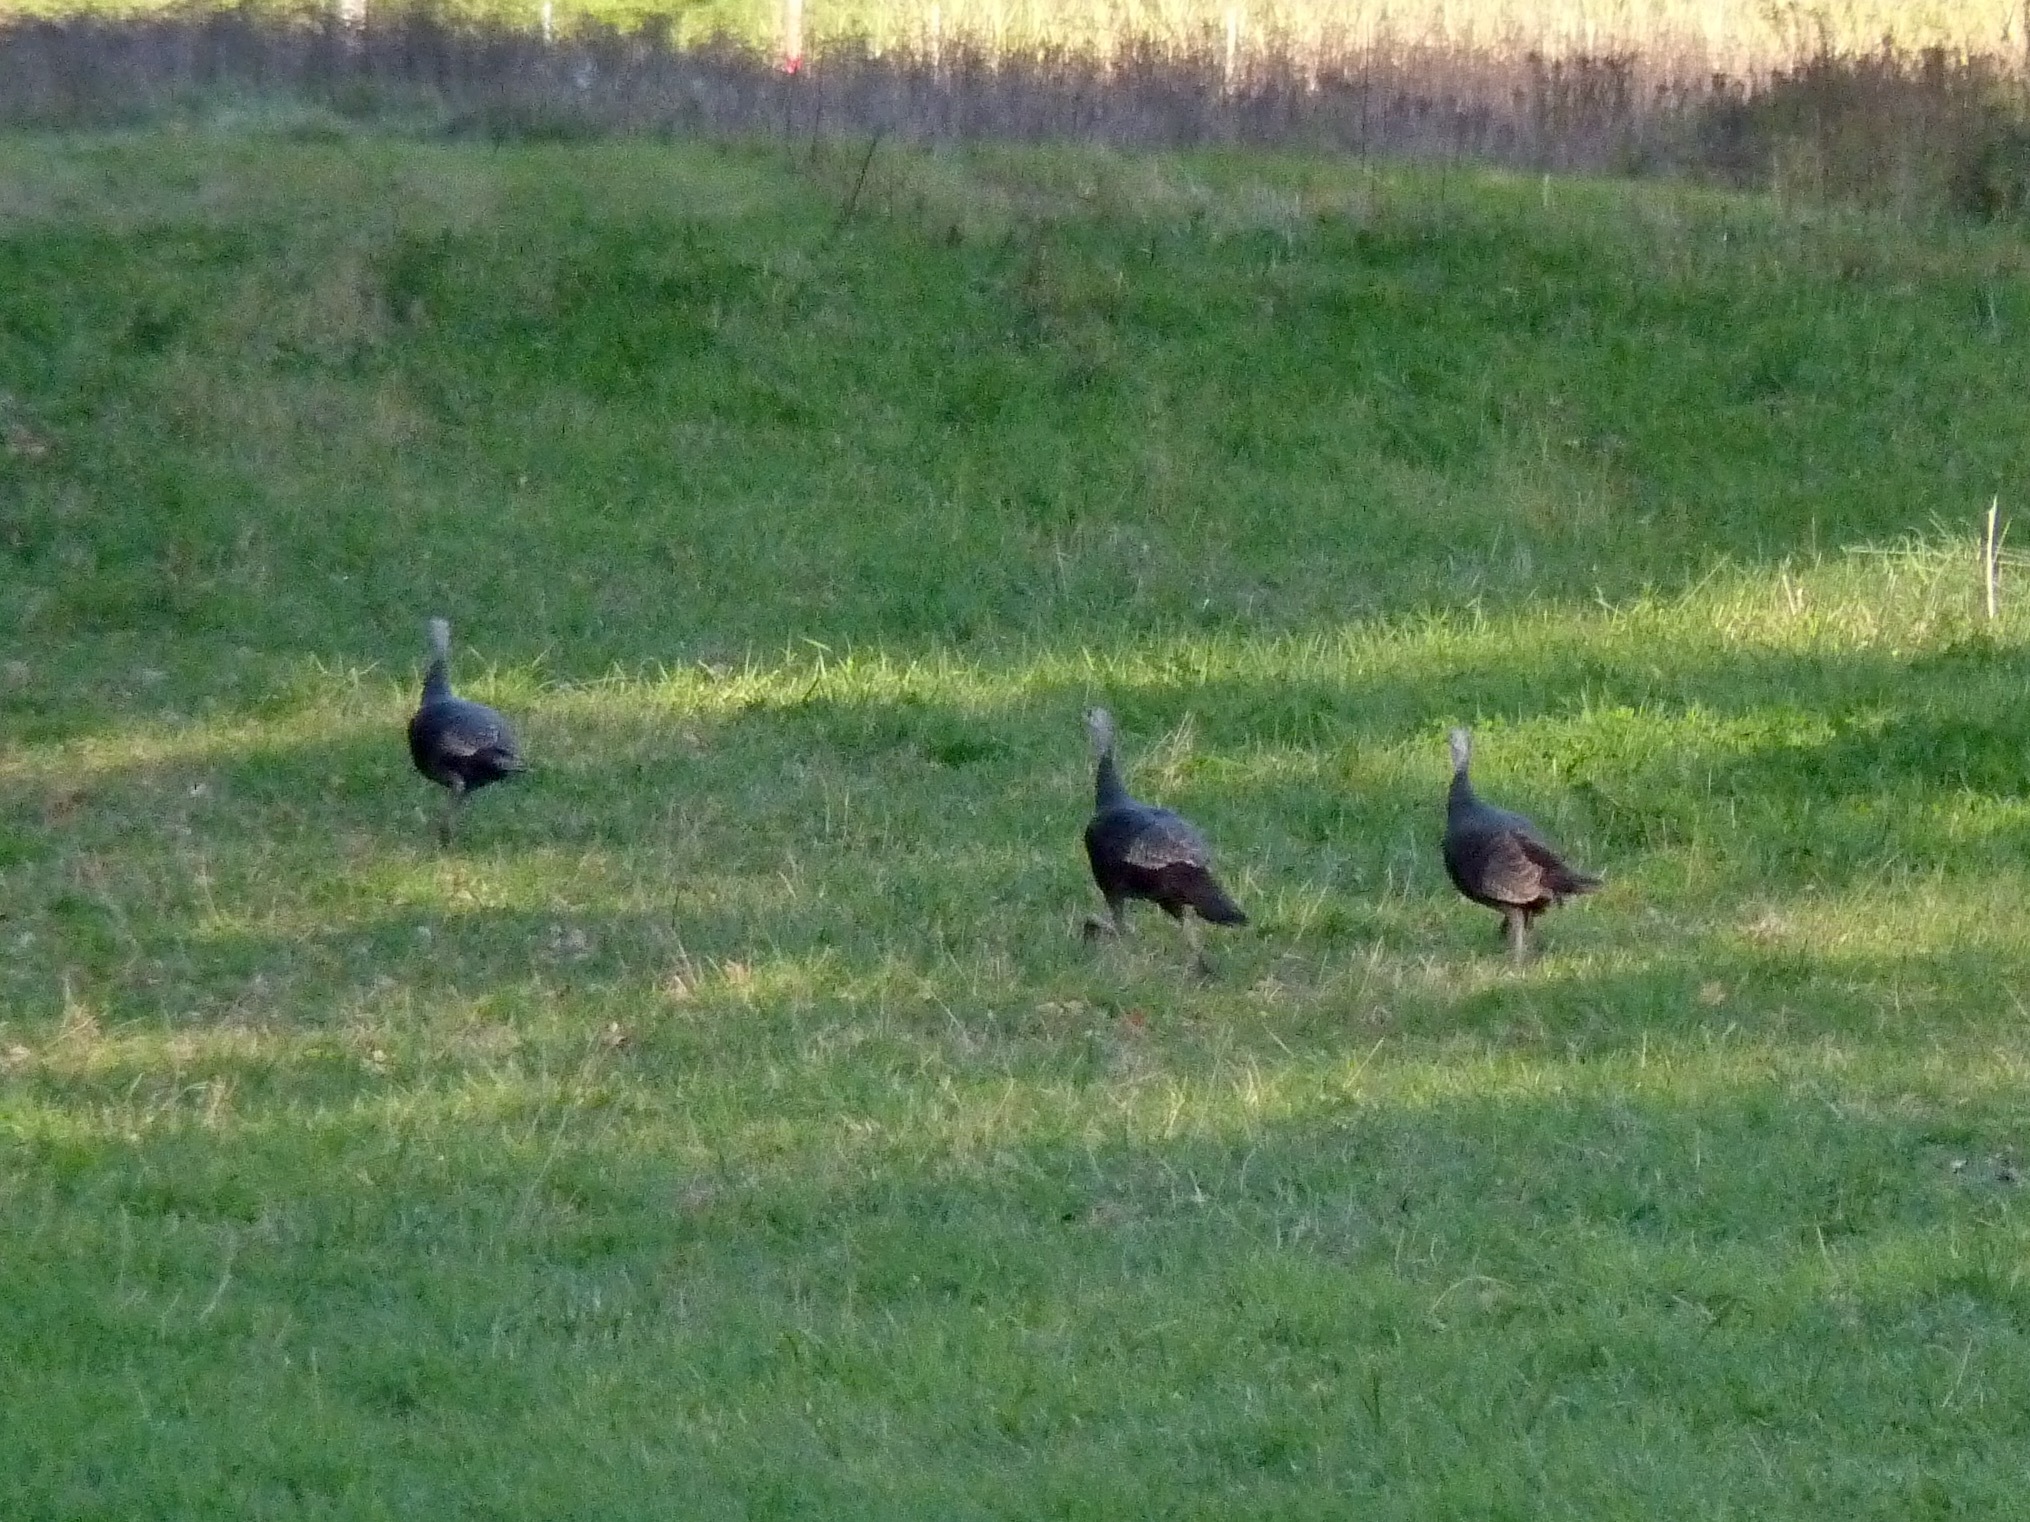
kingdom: Animalia
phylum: Chordata
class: Aves
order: Galliformes
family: Phasianidae
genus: Meleagris
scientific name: Meleagris gallopavo
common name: Wild turkey
